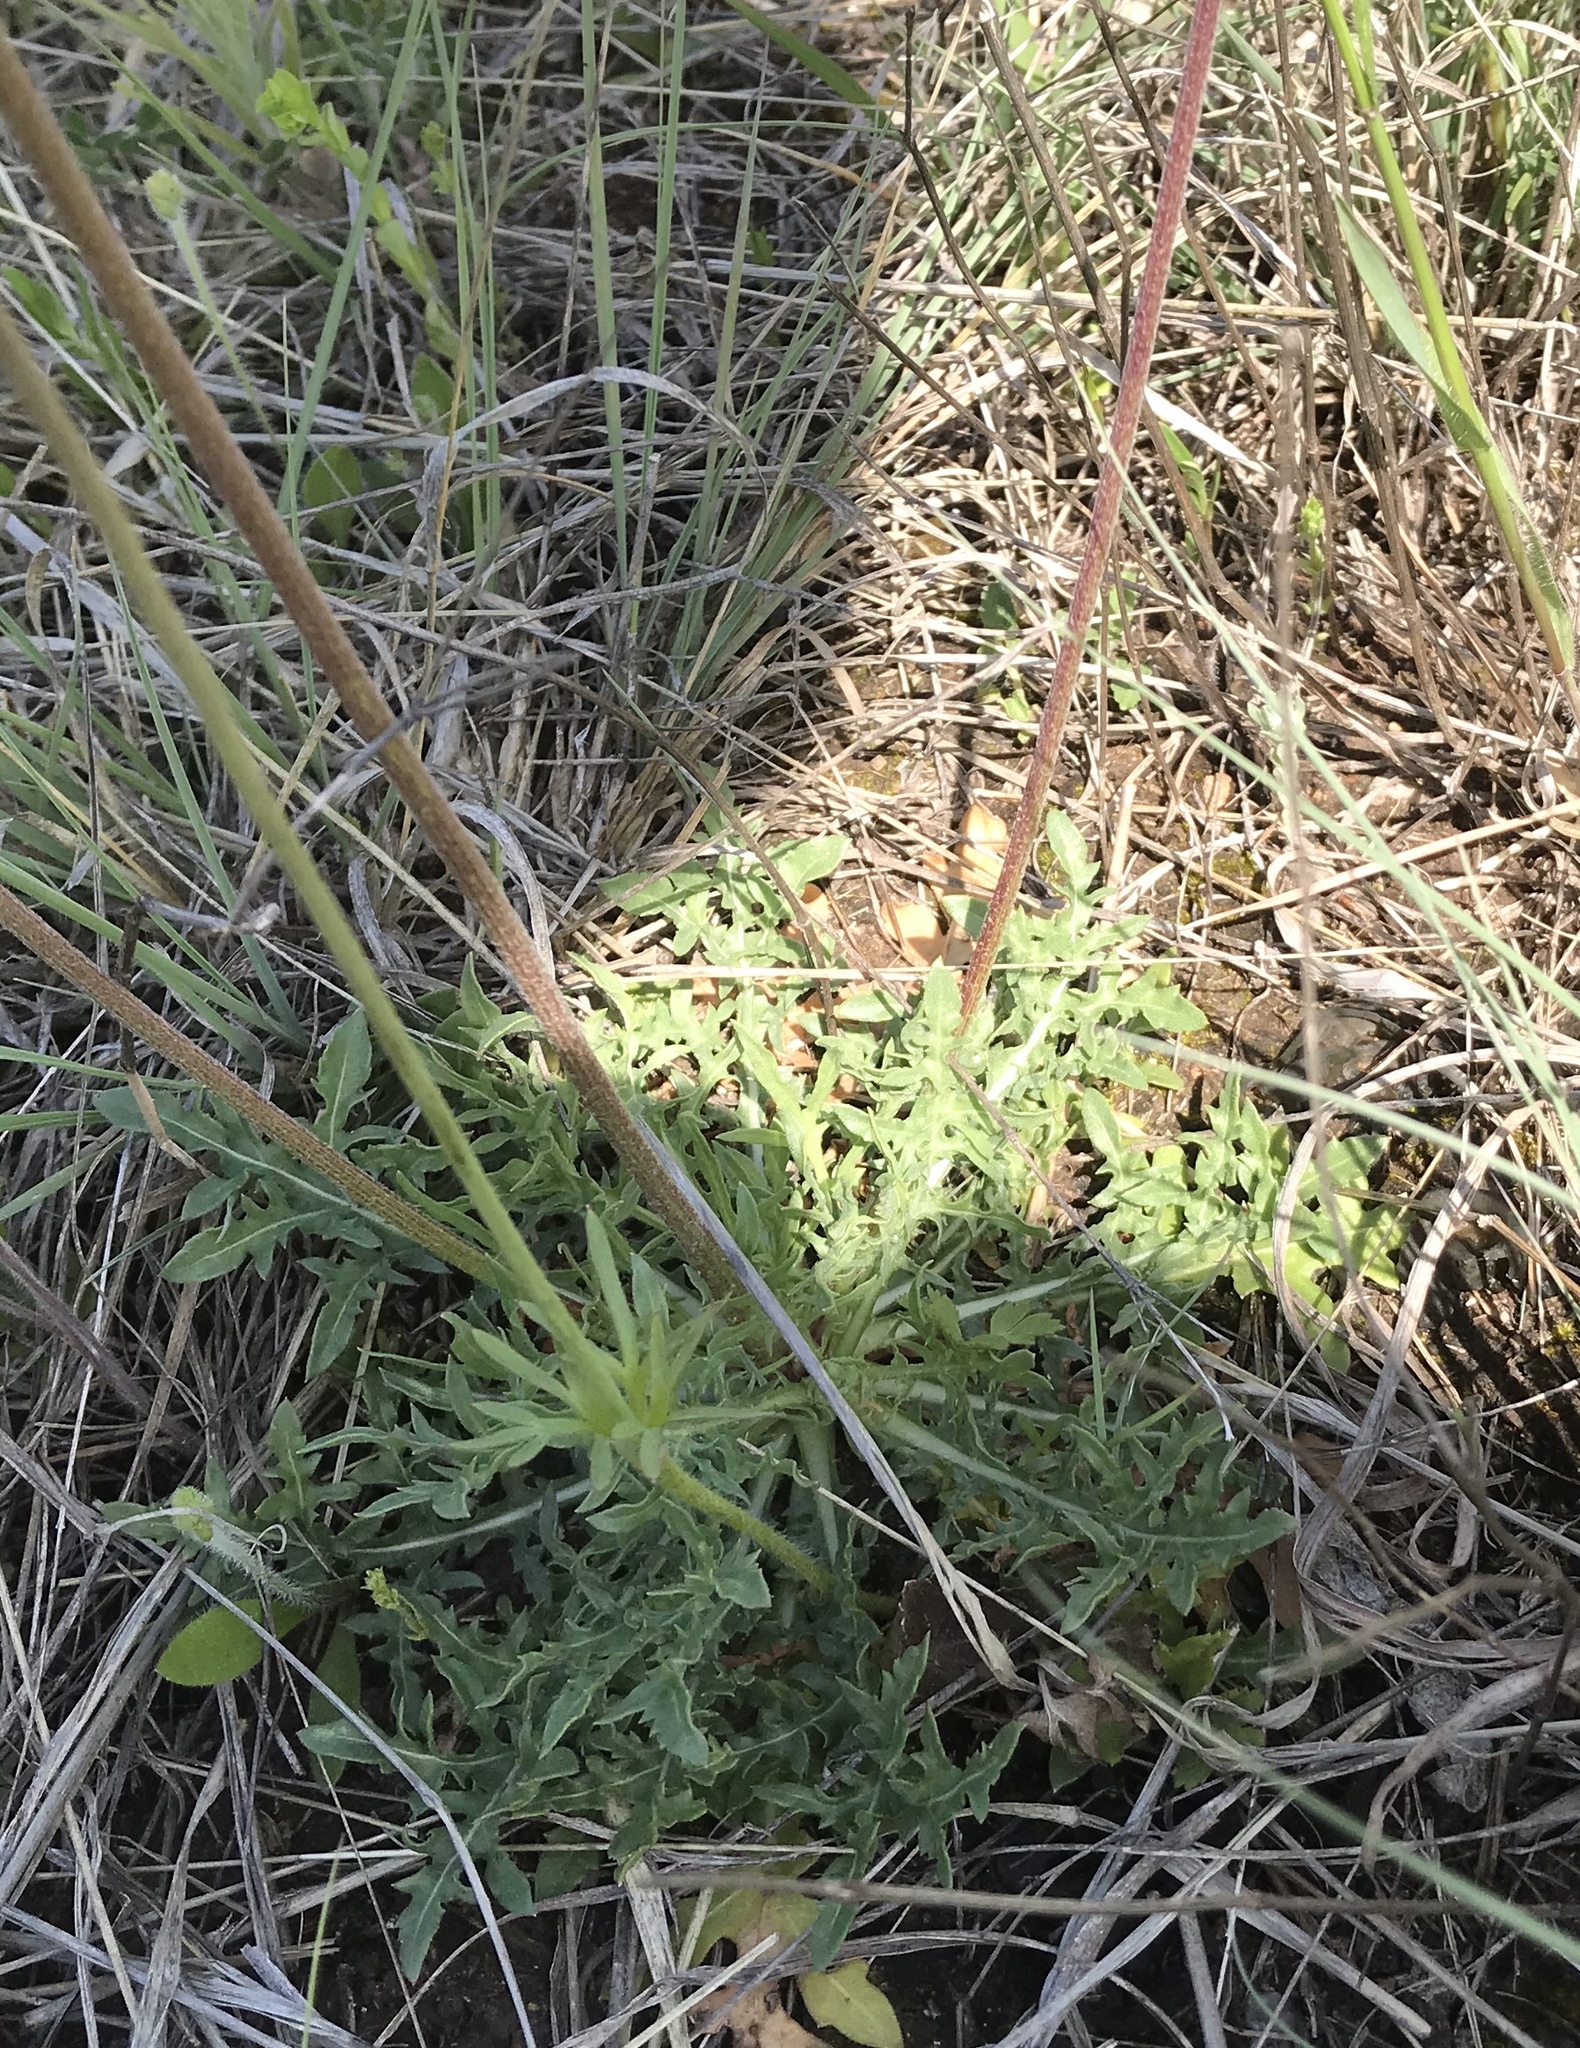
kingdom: Plantae
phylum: Tracheophyta
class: Magnoliopsida
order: Asterales
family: Asteraceae
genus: Gaillardia
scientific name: Gaillardia suavis
